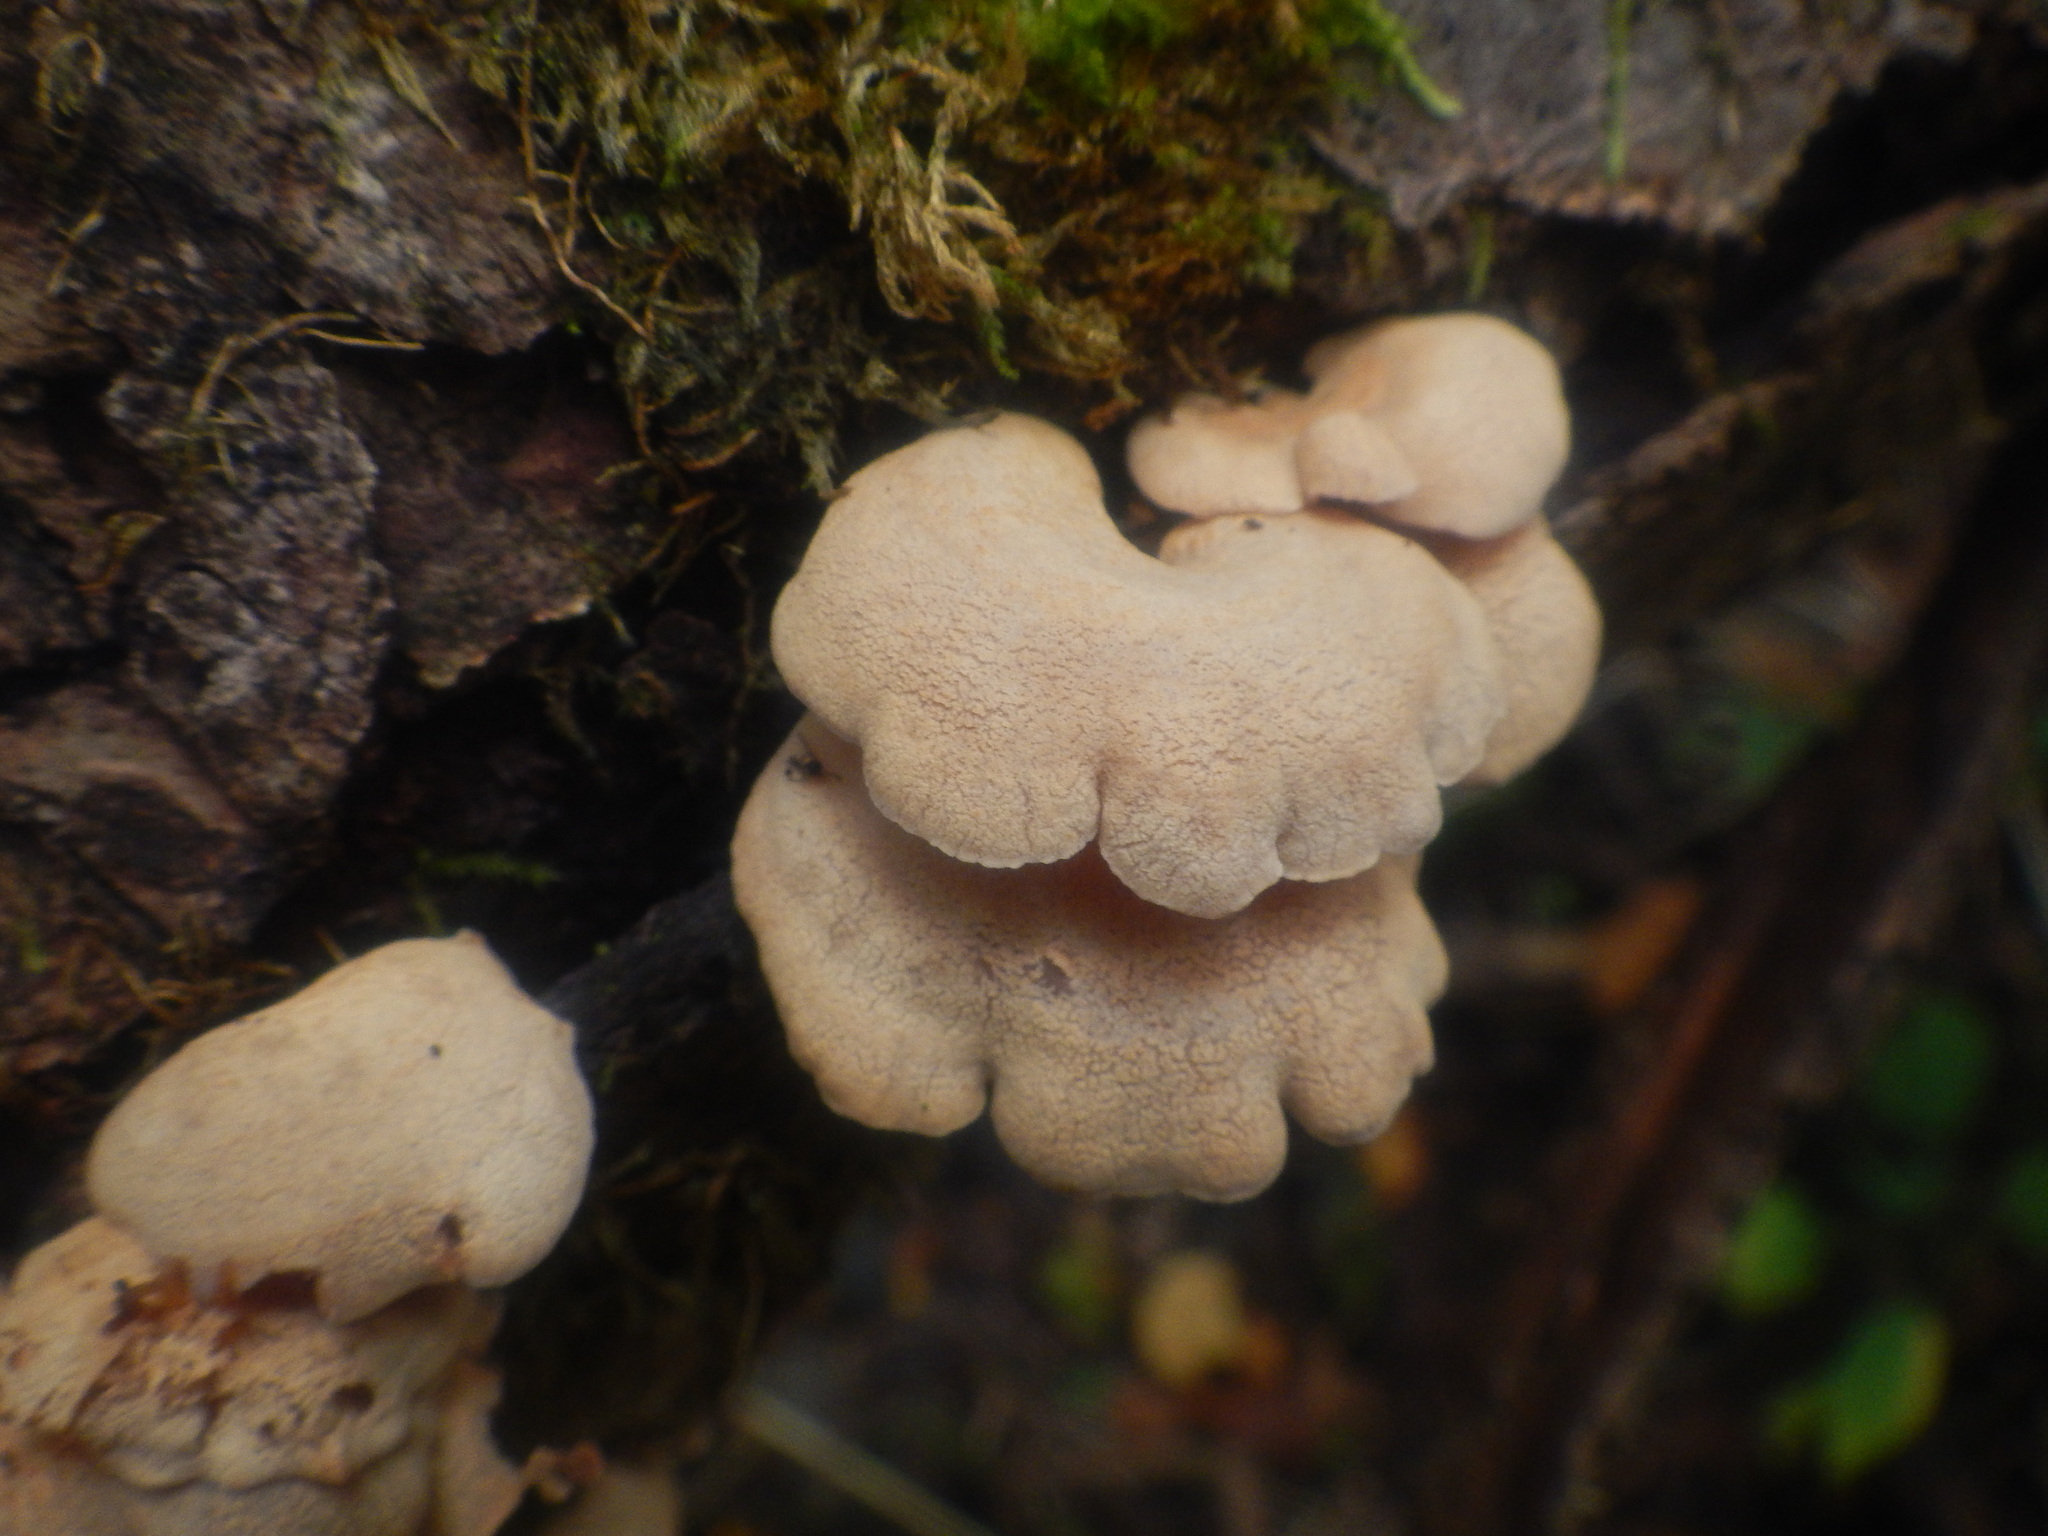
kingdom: Fungi
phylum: Basidiomycota
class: Agaricomycetes
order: Agaricales
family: Mycenaceae
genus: Panellus
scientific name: Panellus stipticus
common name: Bitter oysterling
